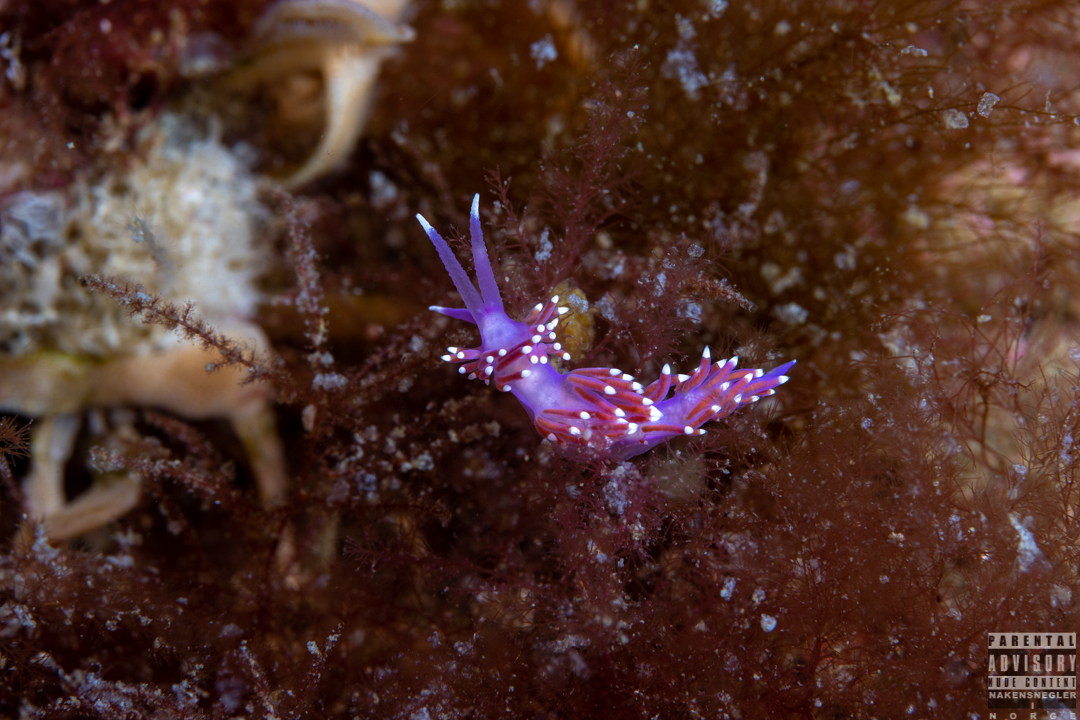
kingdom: Animalia
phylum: Mollusca
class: Gastropoda
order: Nudibranchia
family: Flabellinidae
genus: Edmundsella
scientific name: Edmundsella pedata
